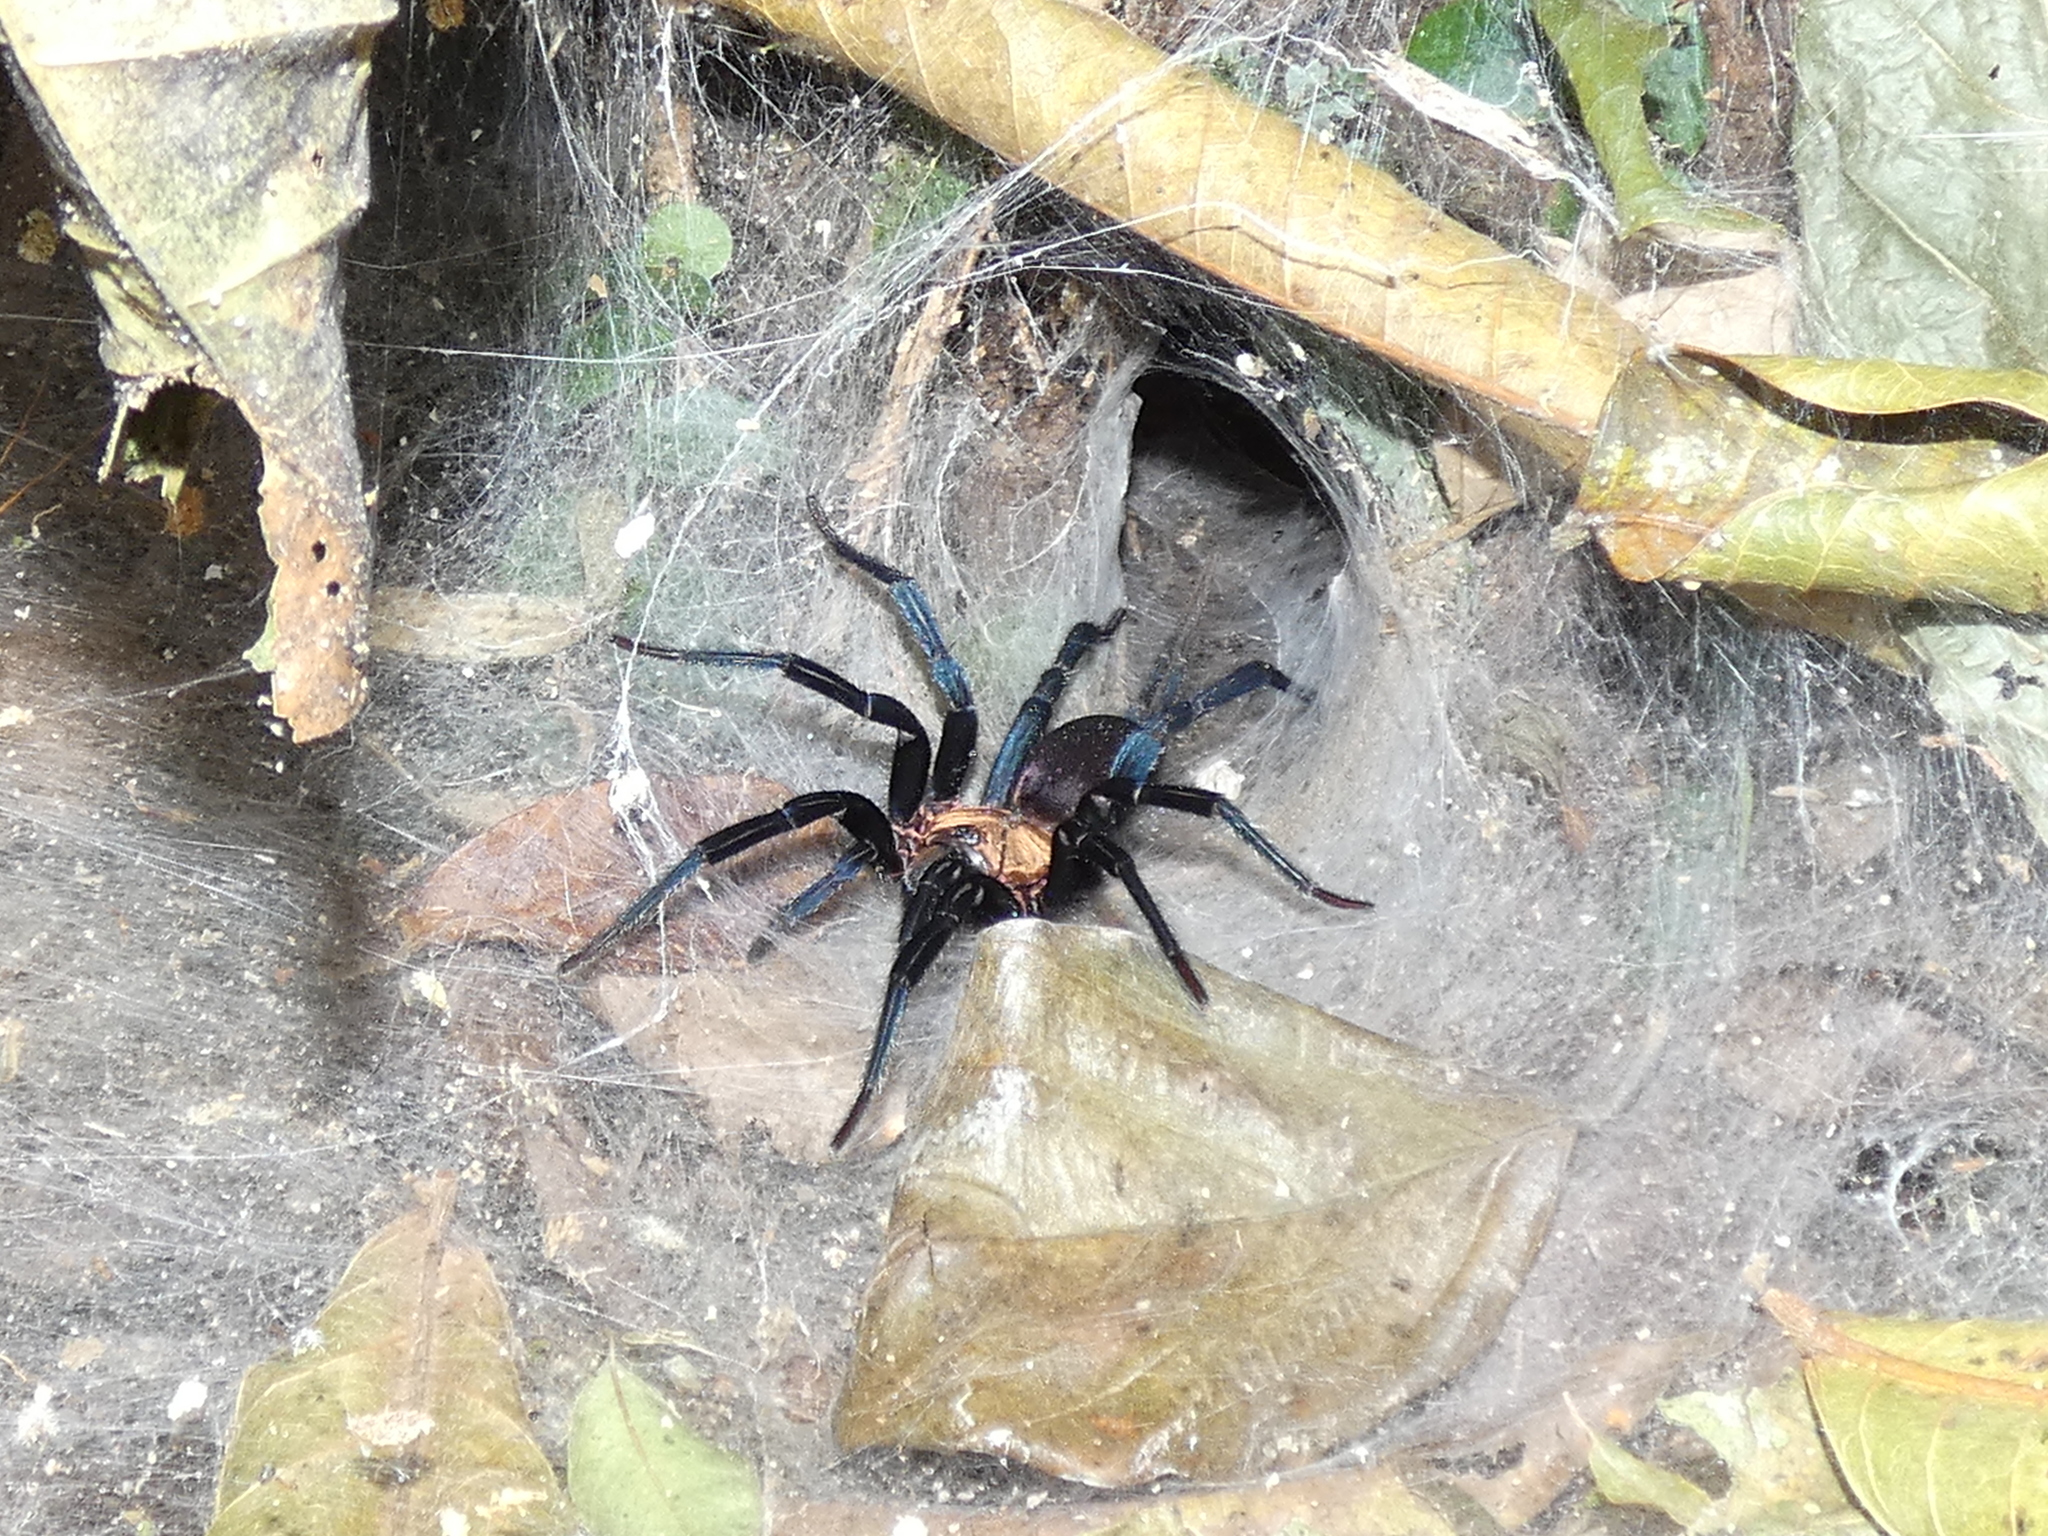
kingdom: Animalia
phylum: Arthropoda
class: Arachnida
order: Araneae
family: Dipluridae
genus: Linothele
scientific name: Linothele sericata
